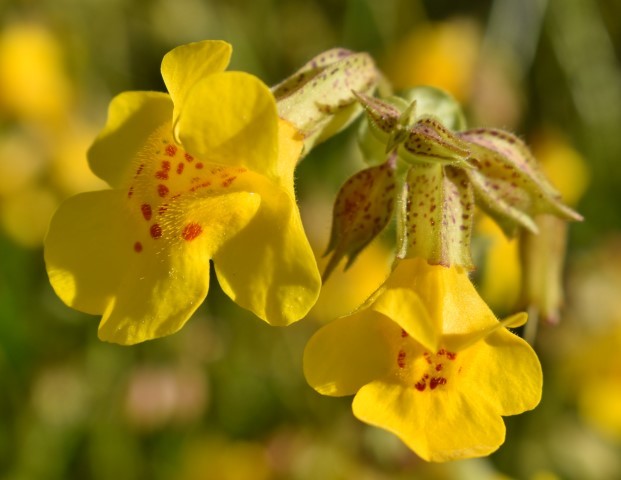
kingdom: Plantae
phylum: Tracheophyta
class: Magnoliopsida
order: Lamiales
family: Phrymaceae
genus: Erythranthe
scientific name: Erythranthe guttata
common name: Monkeyflower
